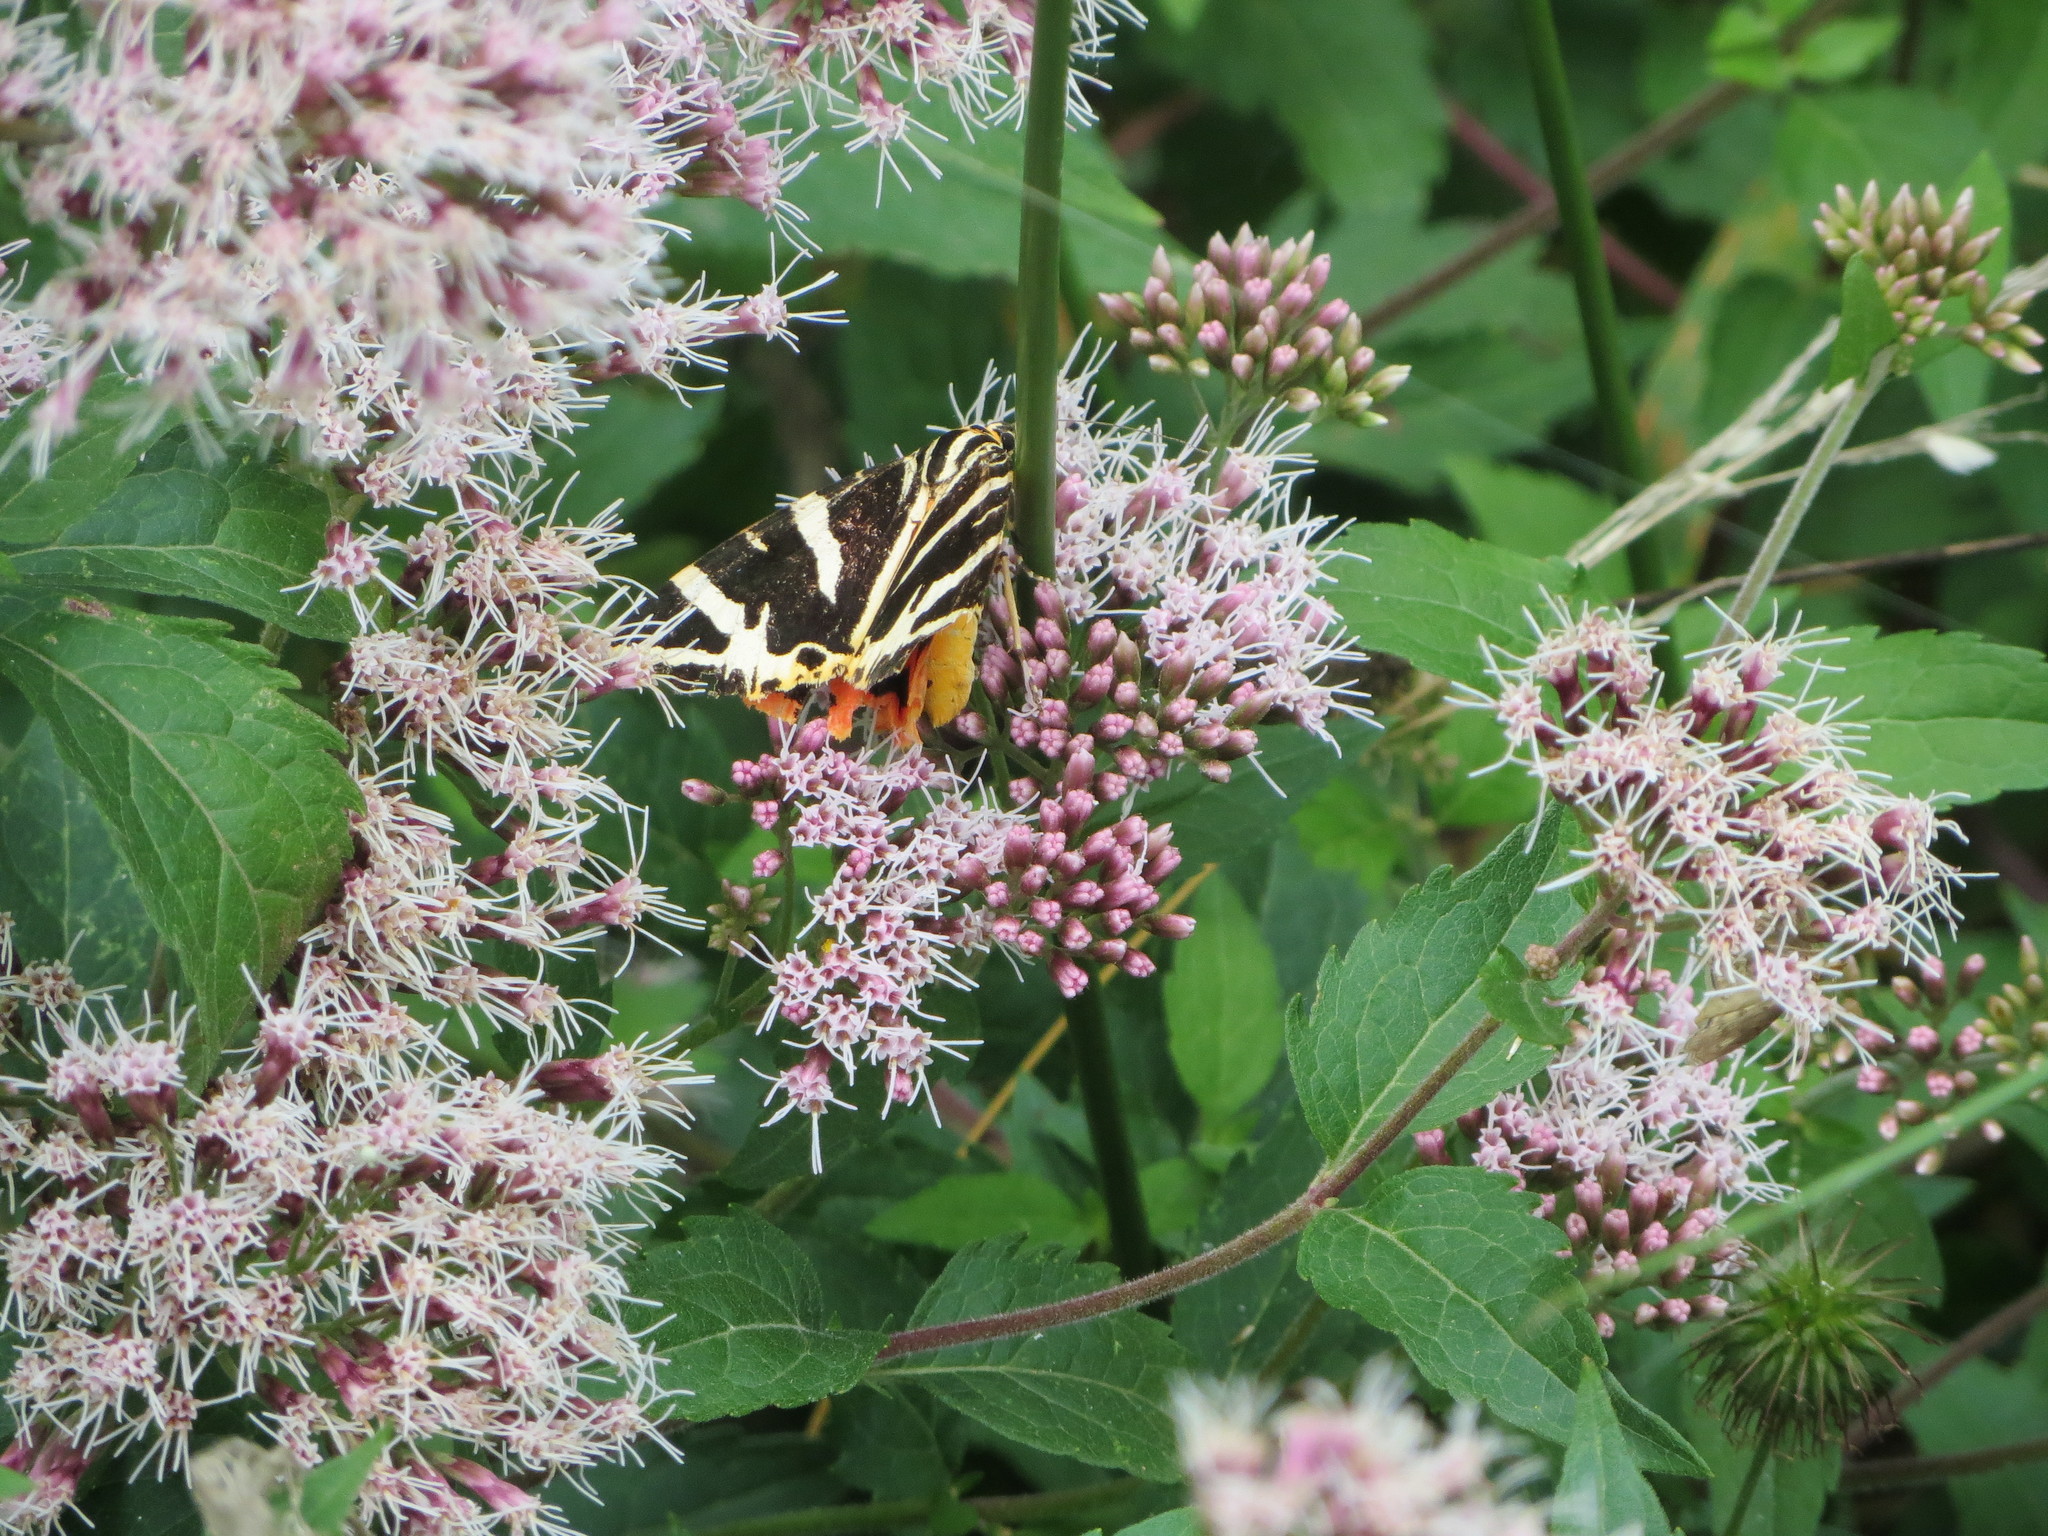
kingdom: Animalia
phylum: Arthropoda
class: Insecta
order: Lepidoptera
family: Erebidae
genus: Euplagia
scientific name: Euplagia quadripunctaria
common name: Jersey tiger
